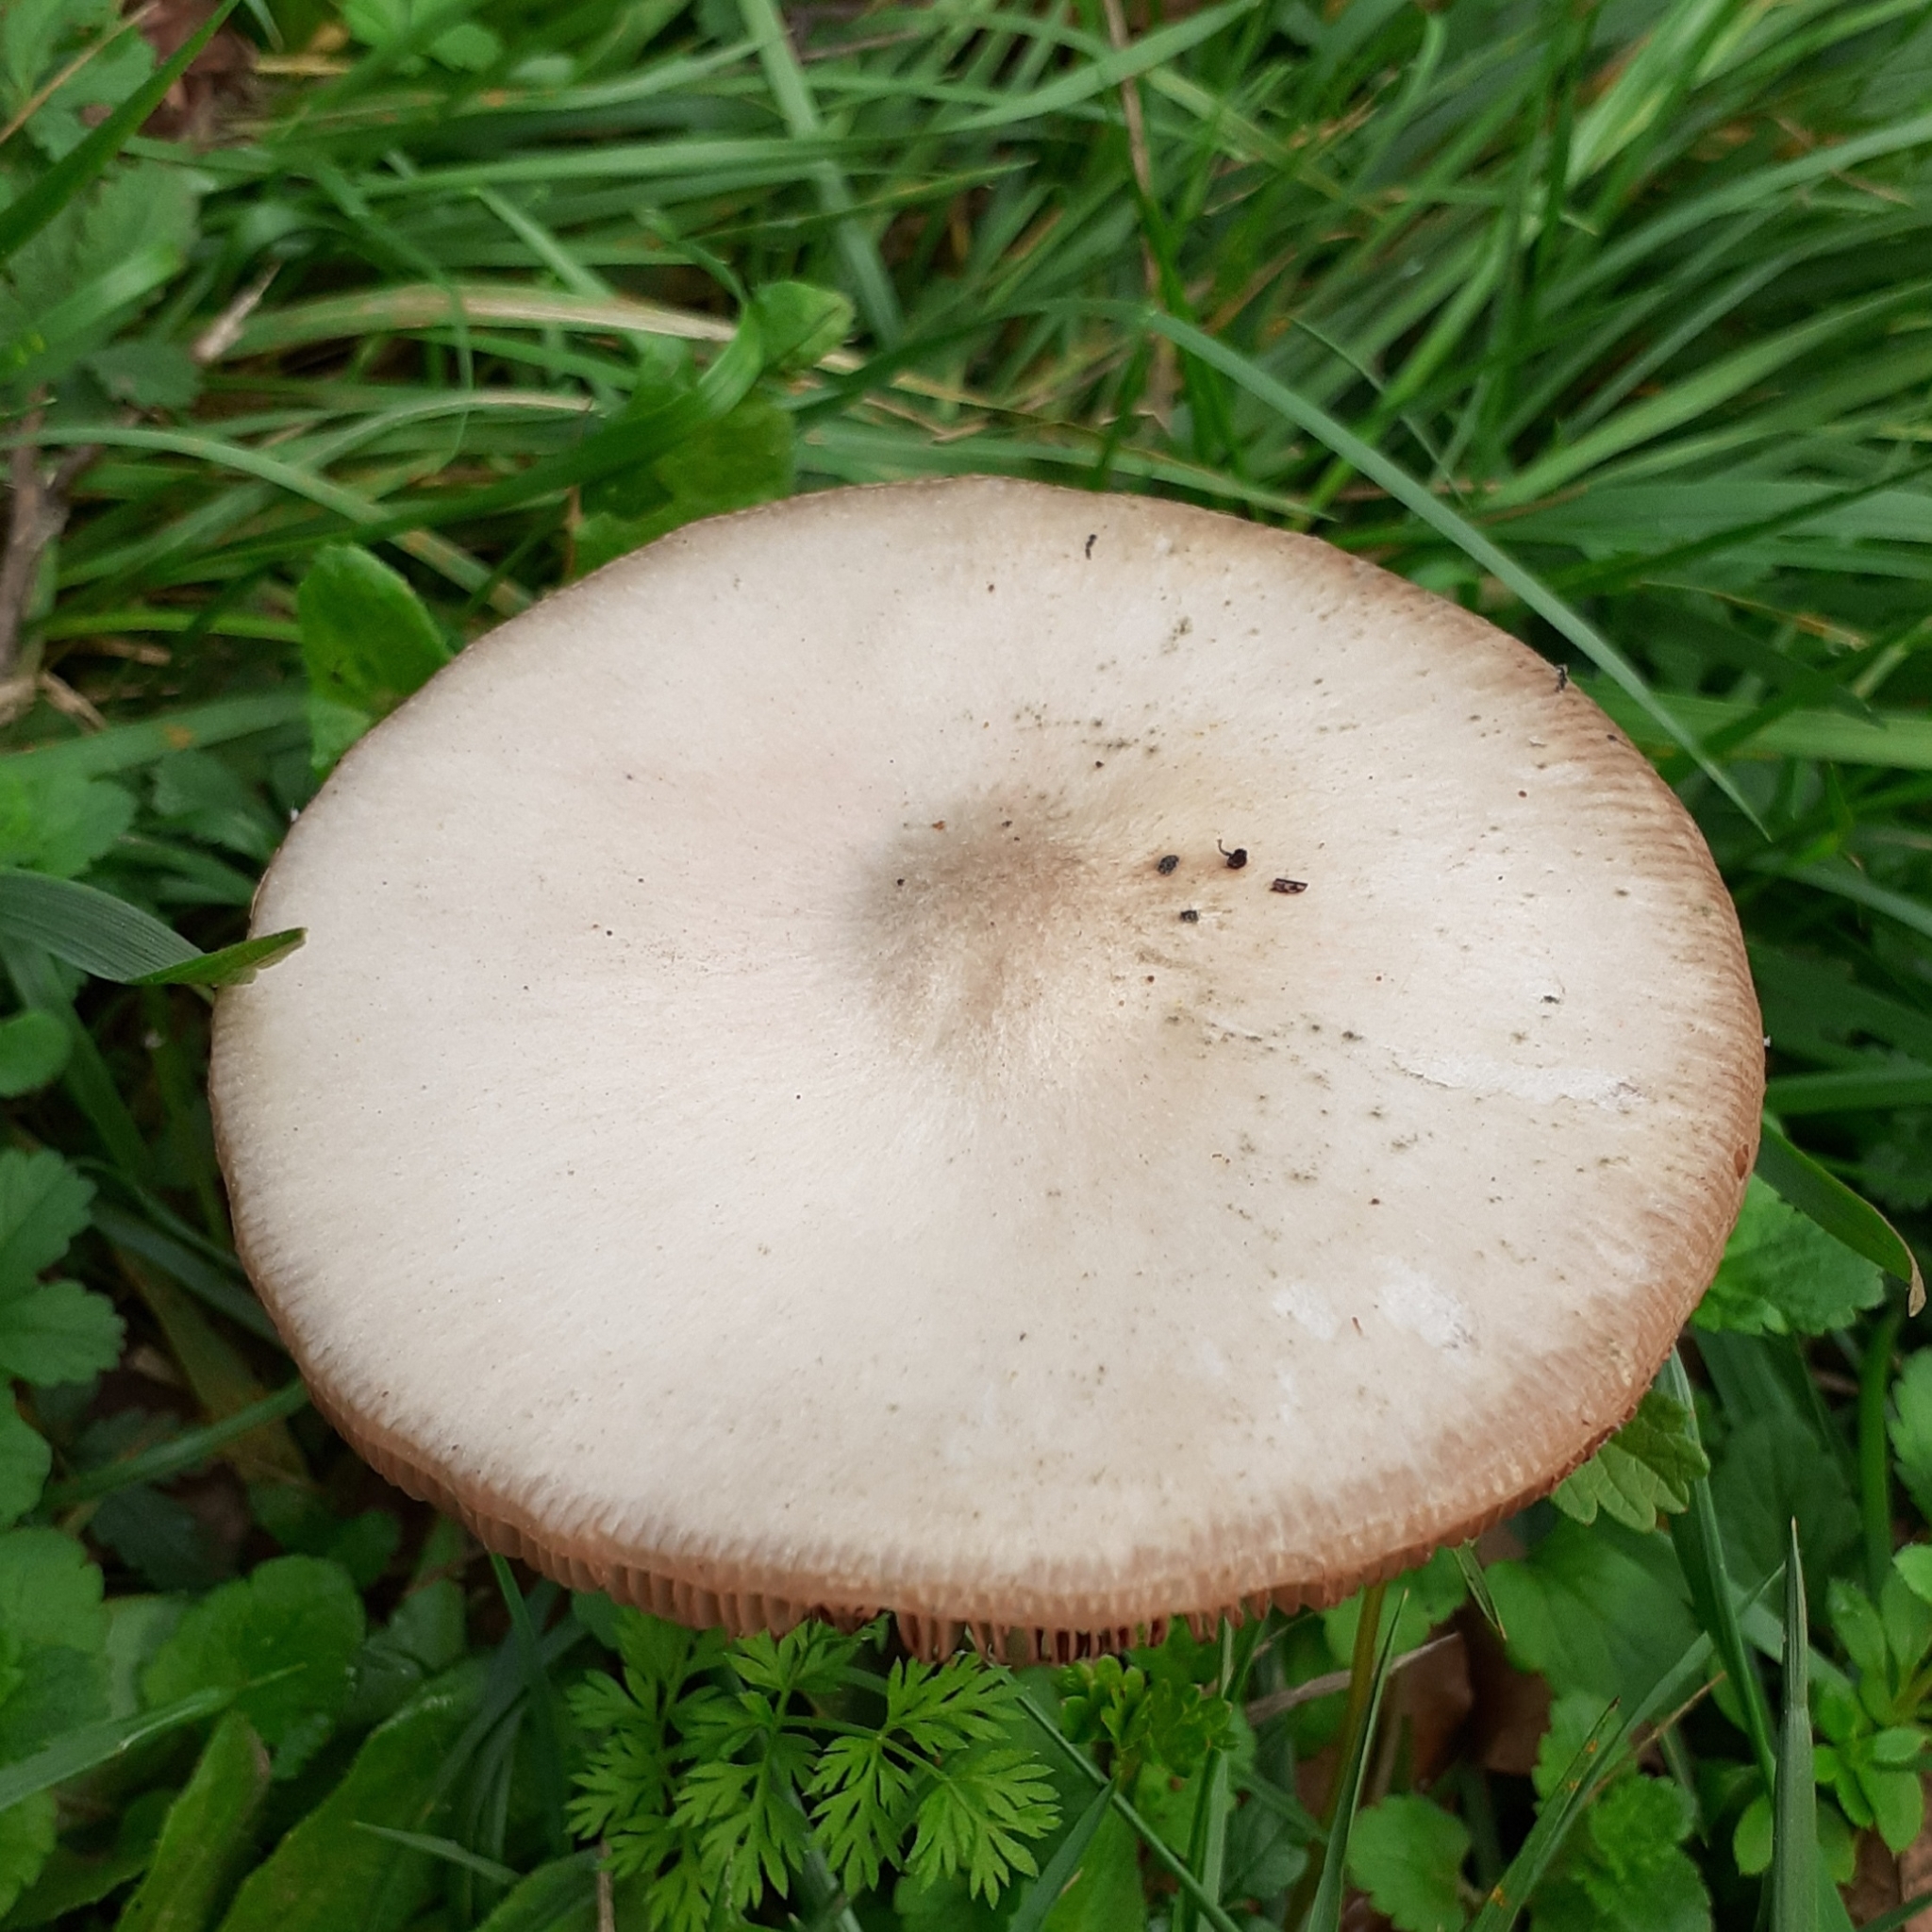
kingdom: Fungi
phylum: Basidiomycota
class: Agaricomycetes
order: Agaricales
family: Pluteaceae
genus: Volvopluteus
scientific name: Volvopluteus gloiocephalus
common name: Stubble rosegill
